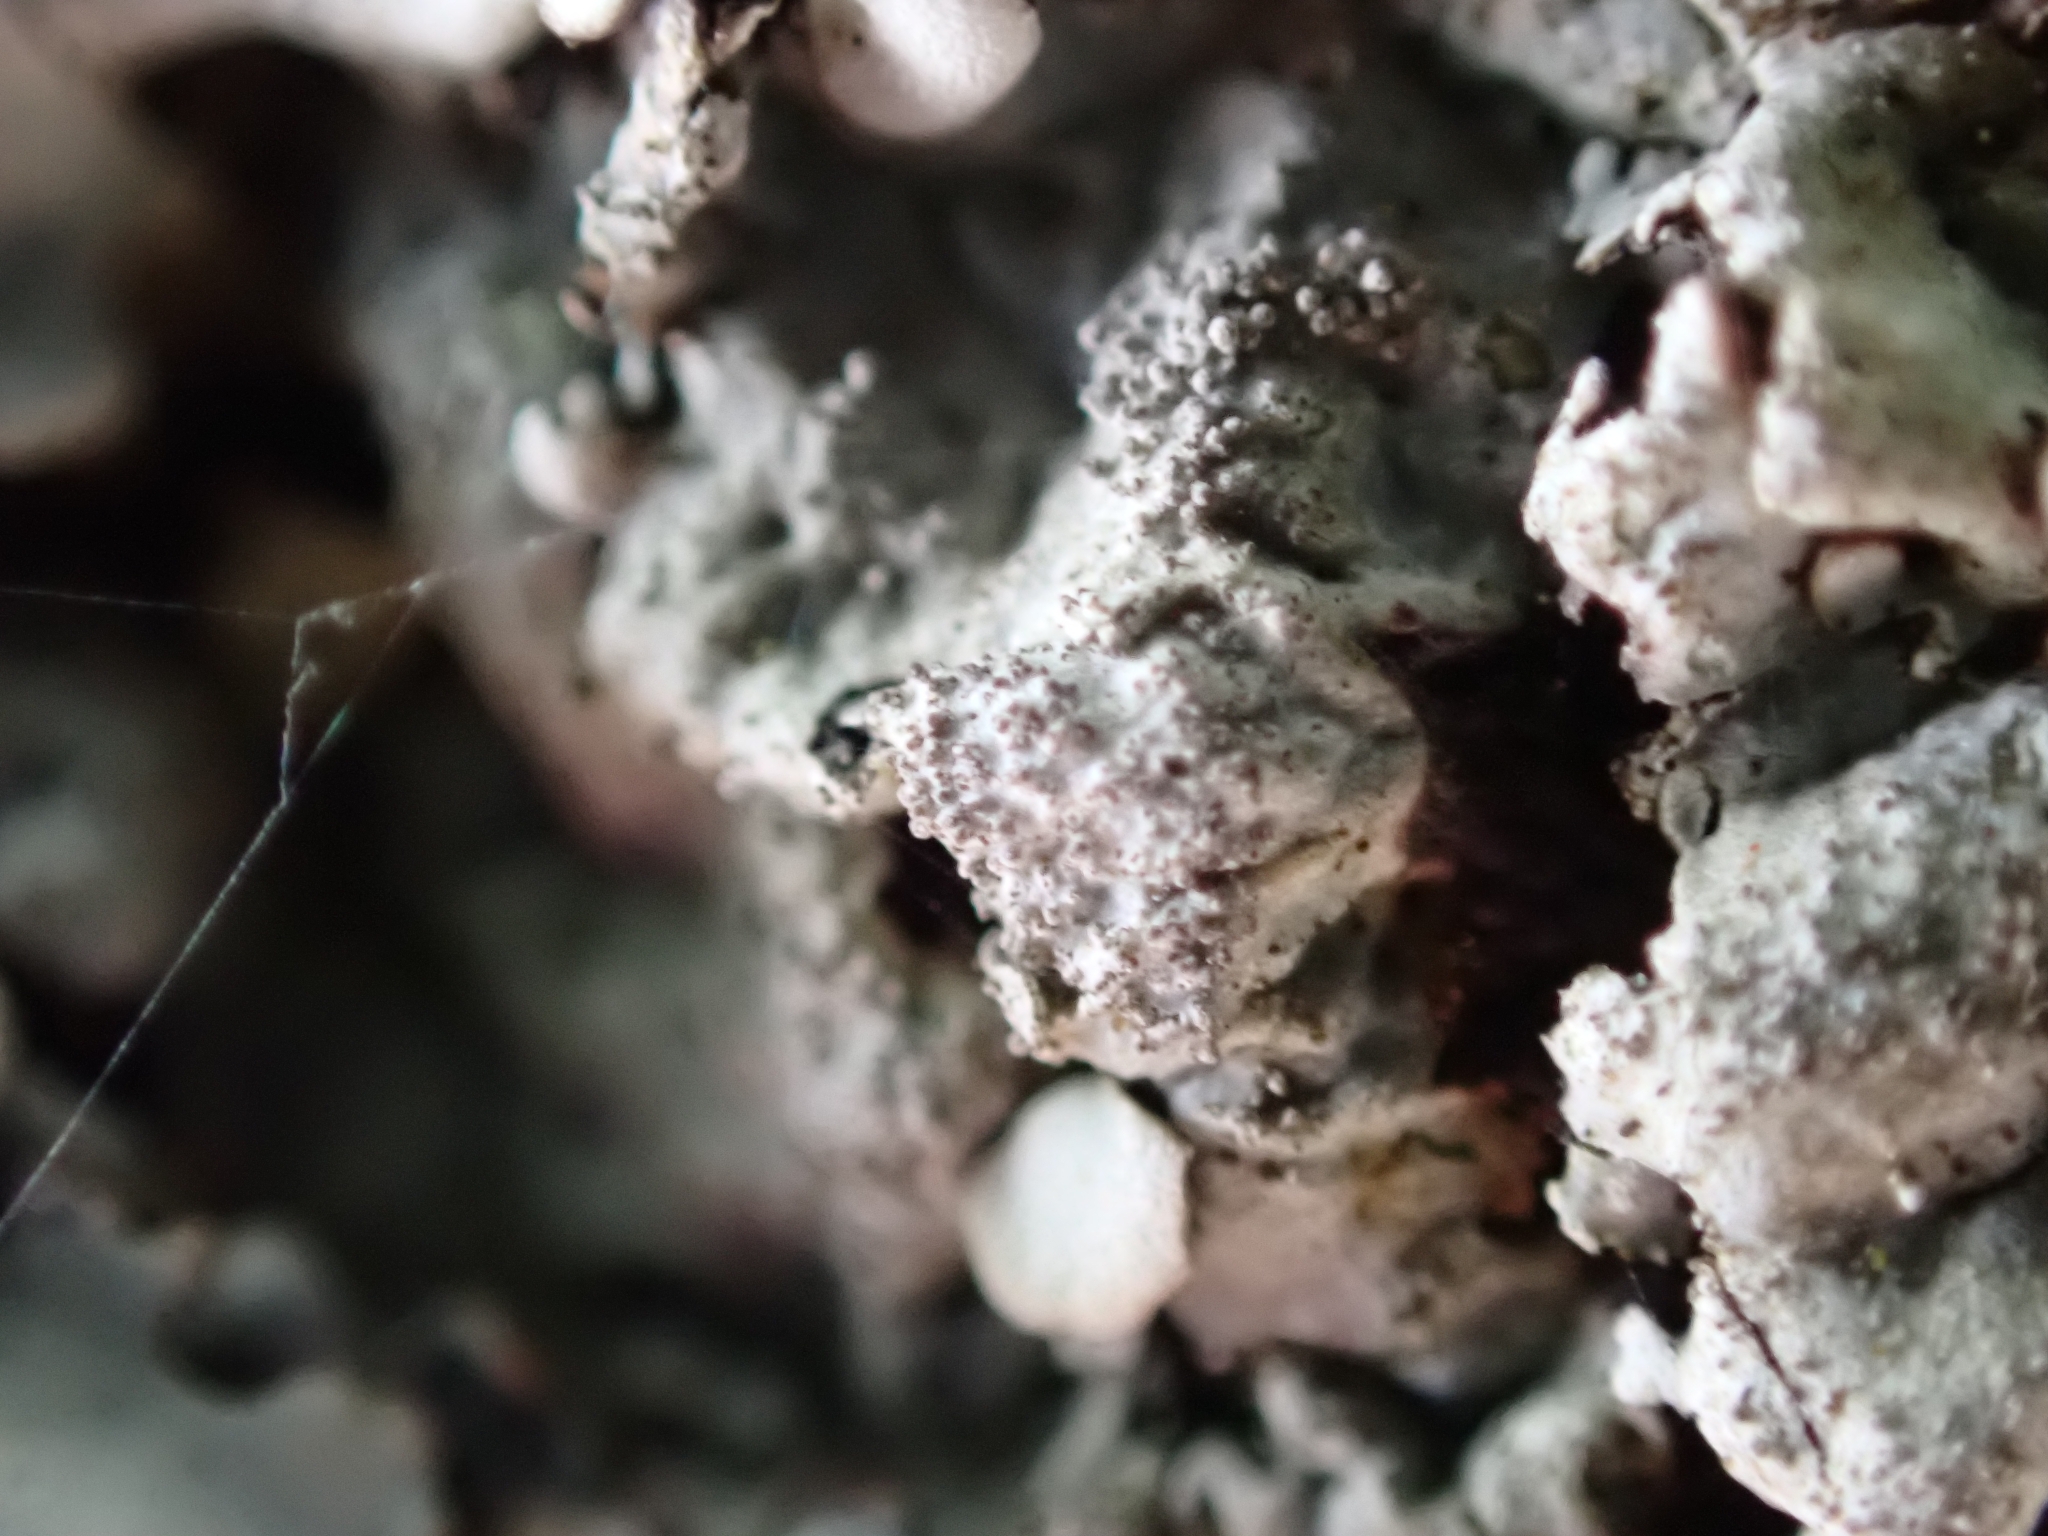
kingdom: Fungi
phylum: Ascomycota
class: Lecanoromycetes
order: Lecanorales
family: Parmeliaceae
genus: Parmelina
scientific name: Parmelina tiliacea
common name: Linden shield lichen
